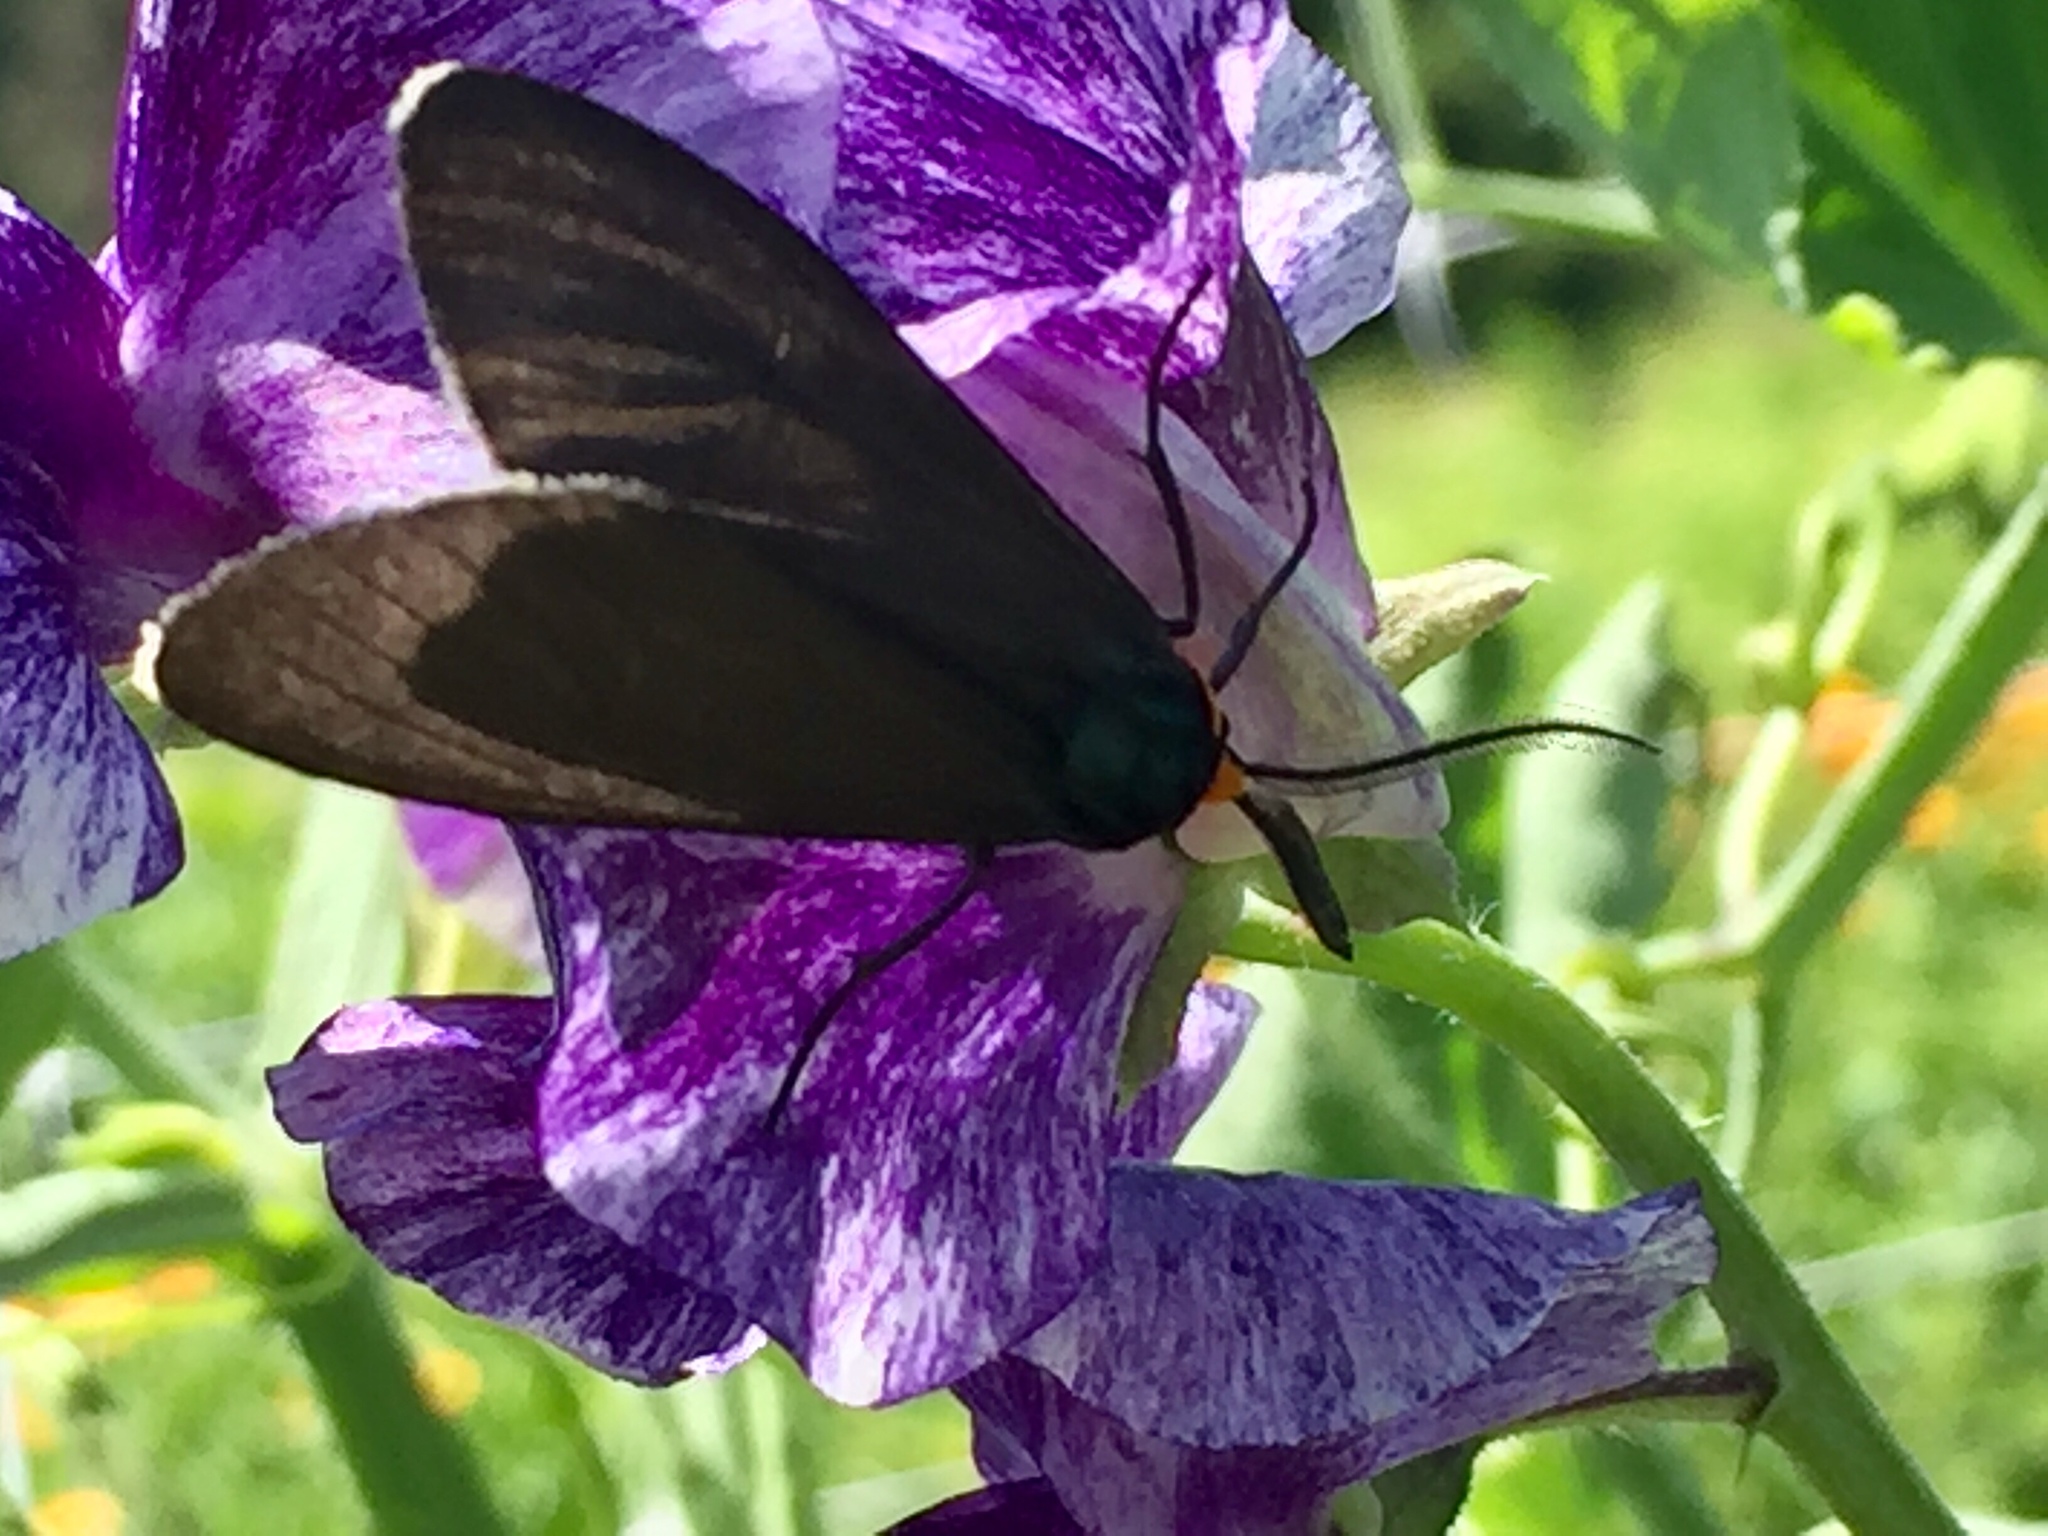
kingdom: Animalia
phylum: Arthropoda
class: Insecta
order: Lepidoptera
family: Erebidae
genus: Ctenucha
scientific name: Ctenucha virginica
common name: Virginia ctenucha moth
